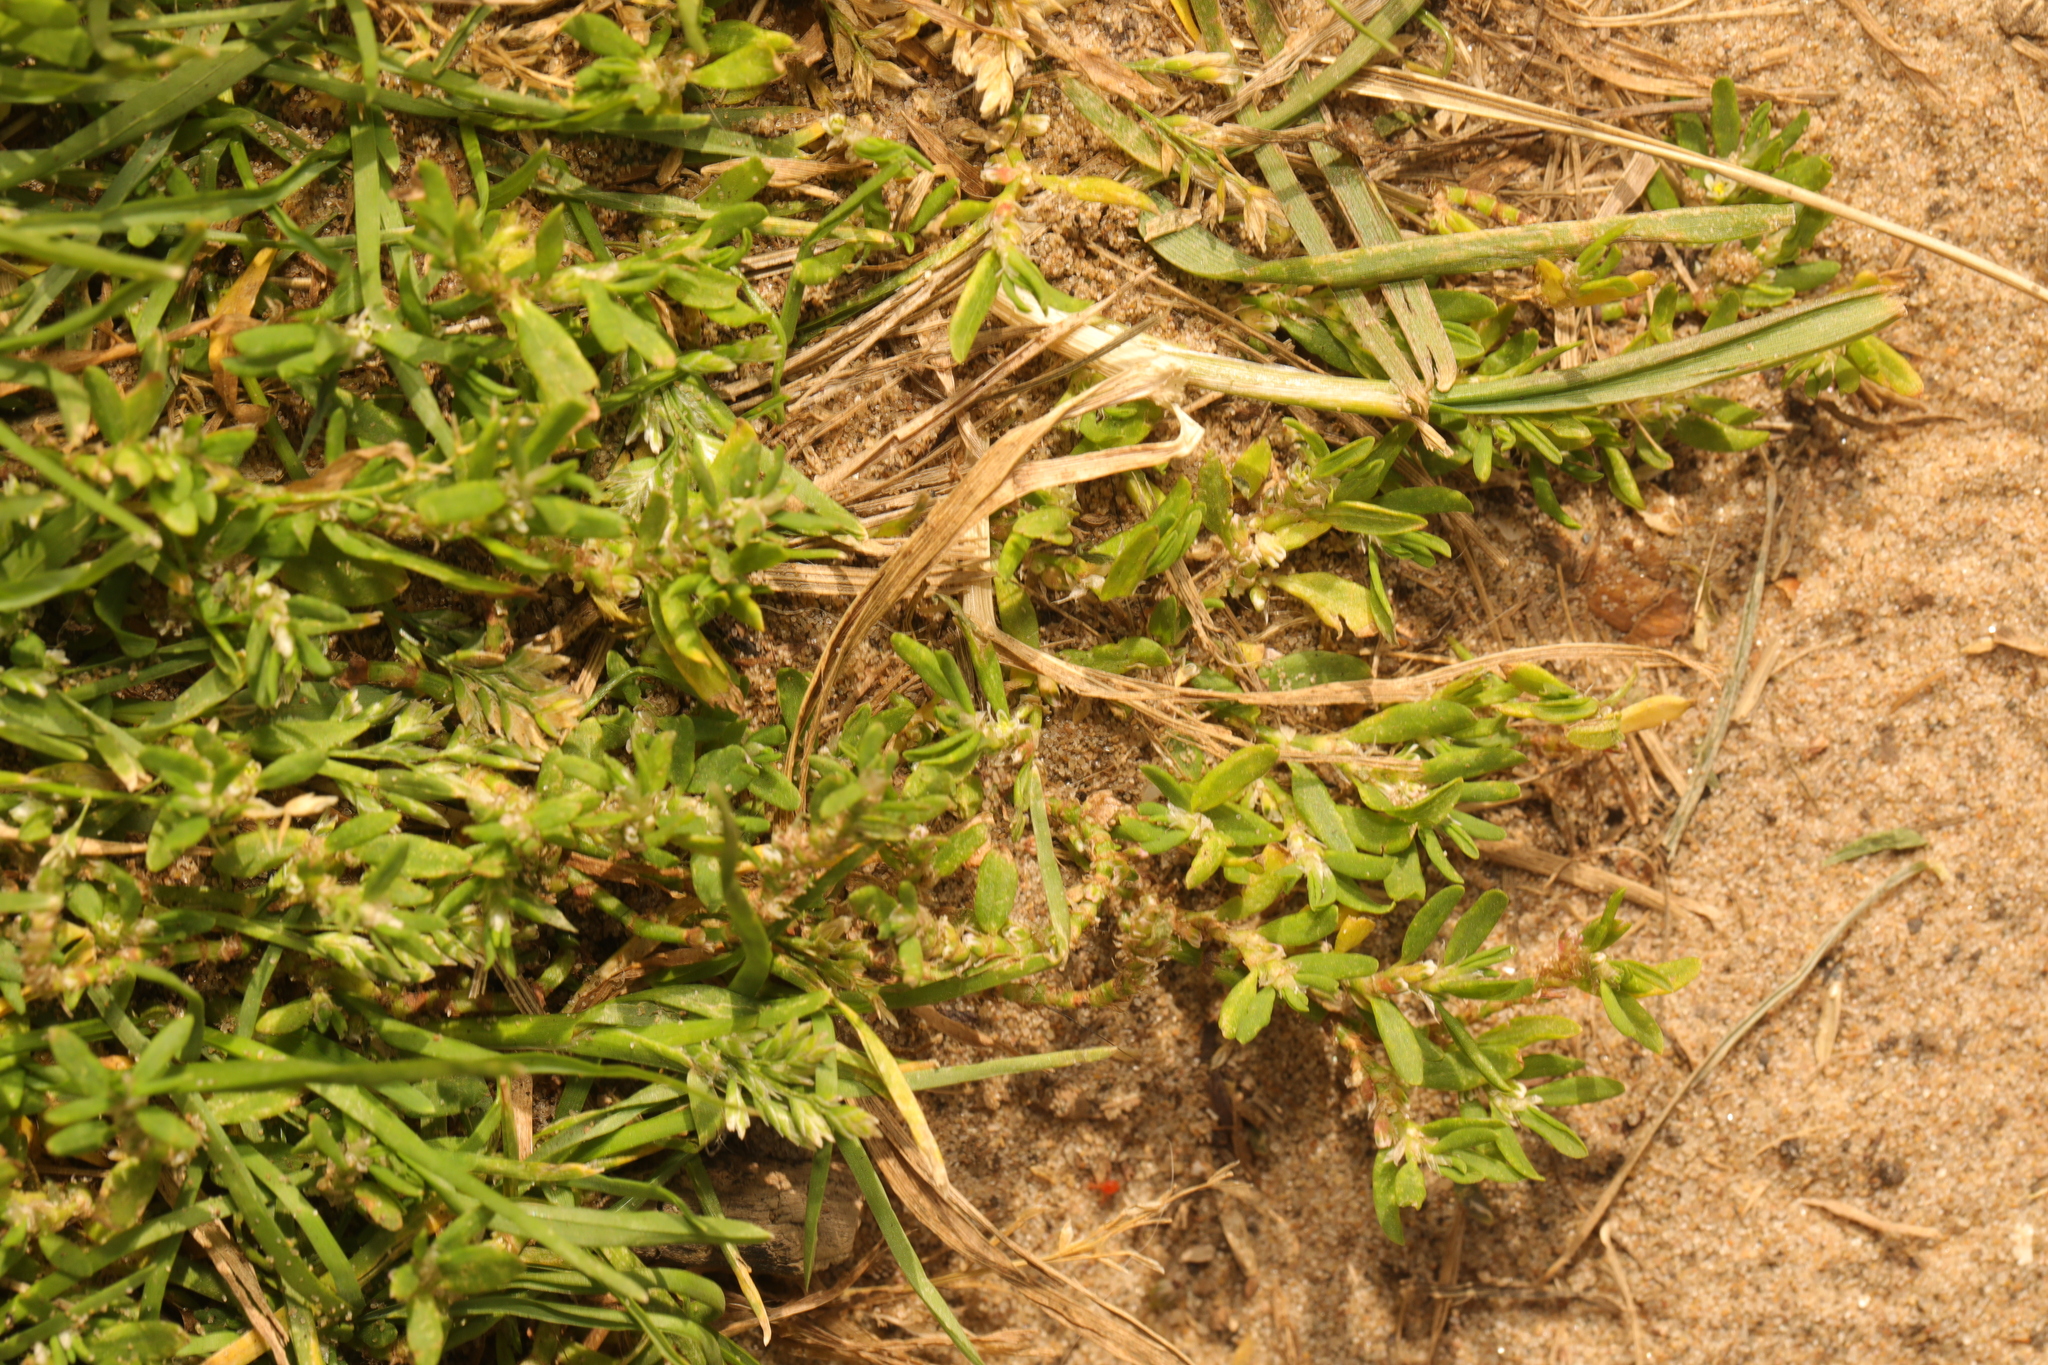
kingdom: Plantae
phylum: Tracheophyta
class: Magnoliopsida
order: Caryophyllales
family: Polygonaceae
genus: Polygonum
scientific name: Polygonum arenastrum
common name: Equal-leaved knotgrass
